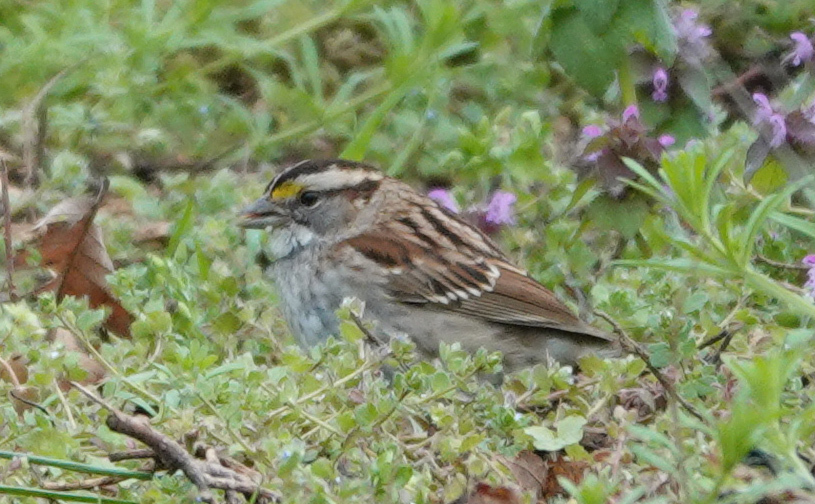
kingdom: Animalia
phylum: Chordata
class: Aves
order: Passeriformes
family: Passerellidae
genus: Zonotrichia
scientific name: Zonotrichia albicollis
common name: White-throated sparrow
